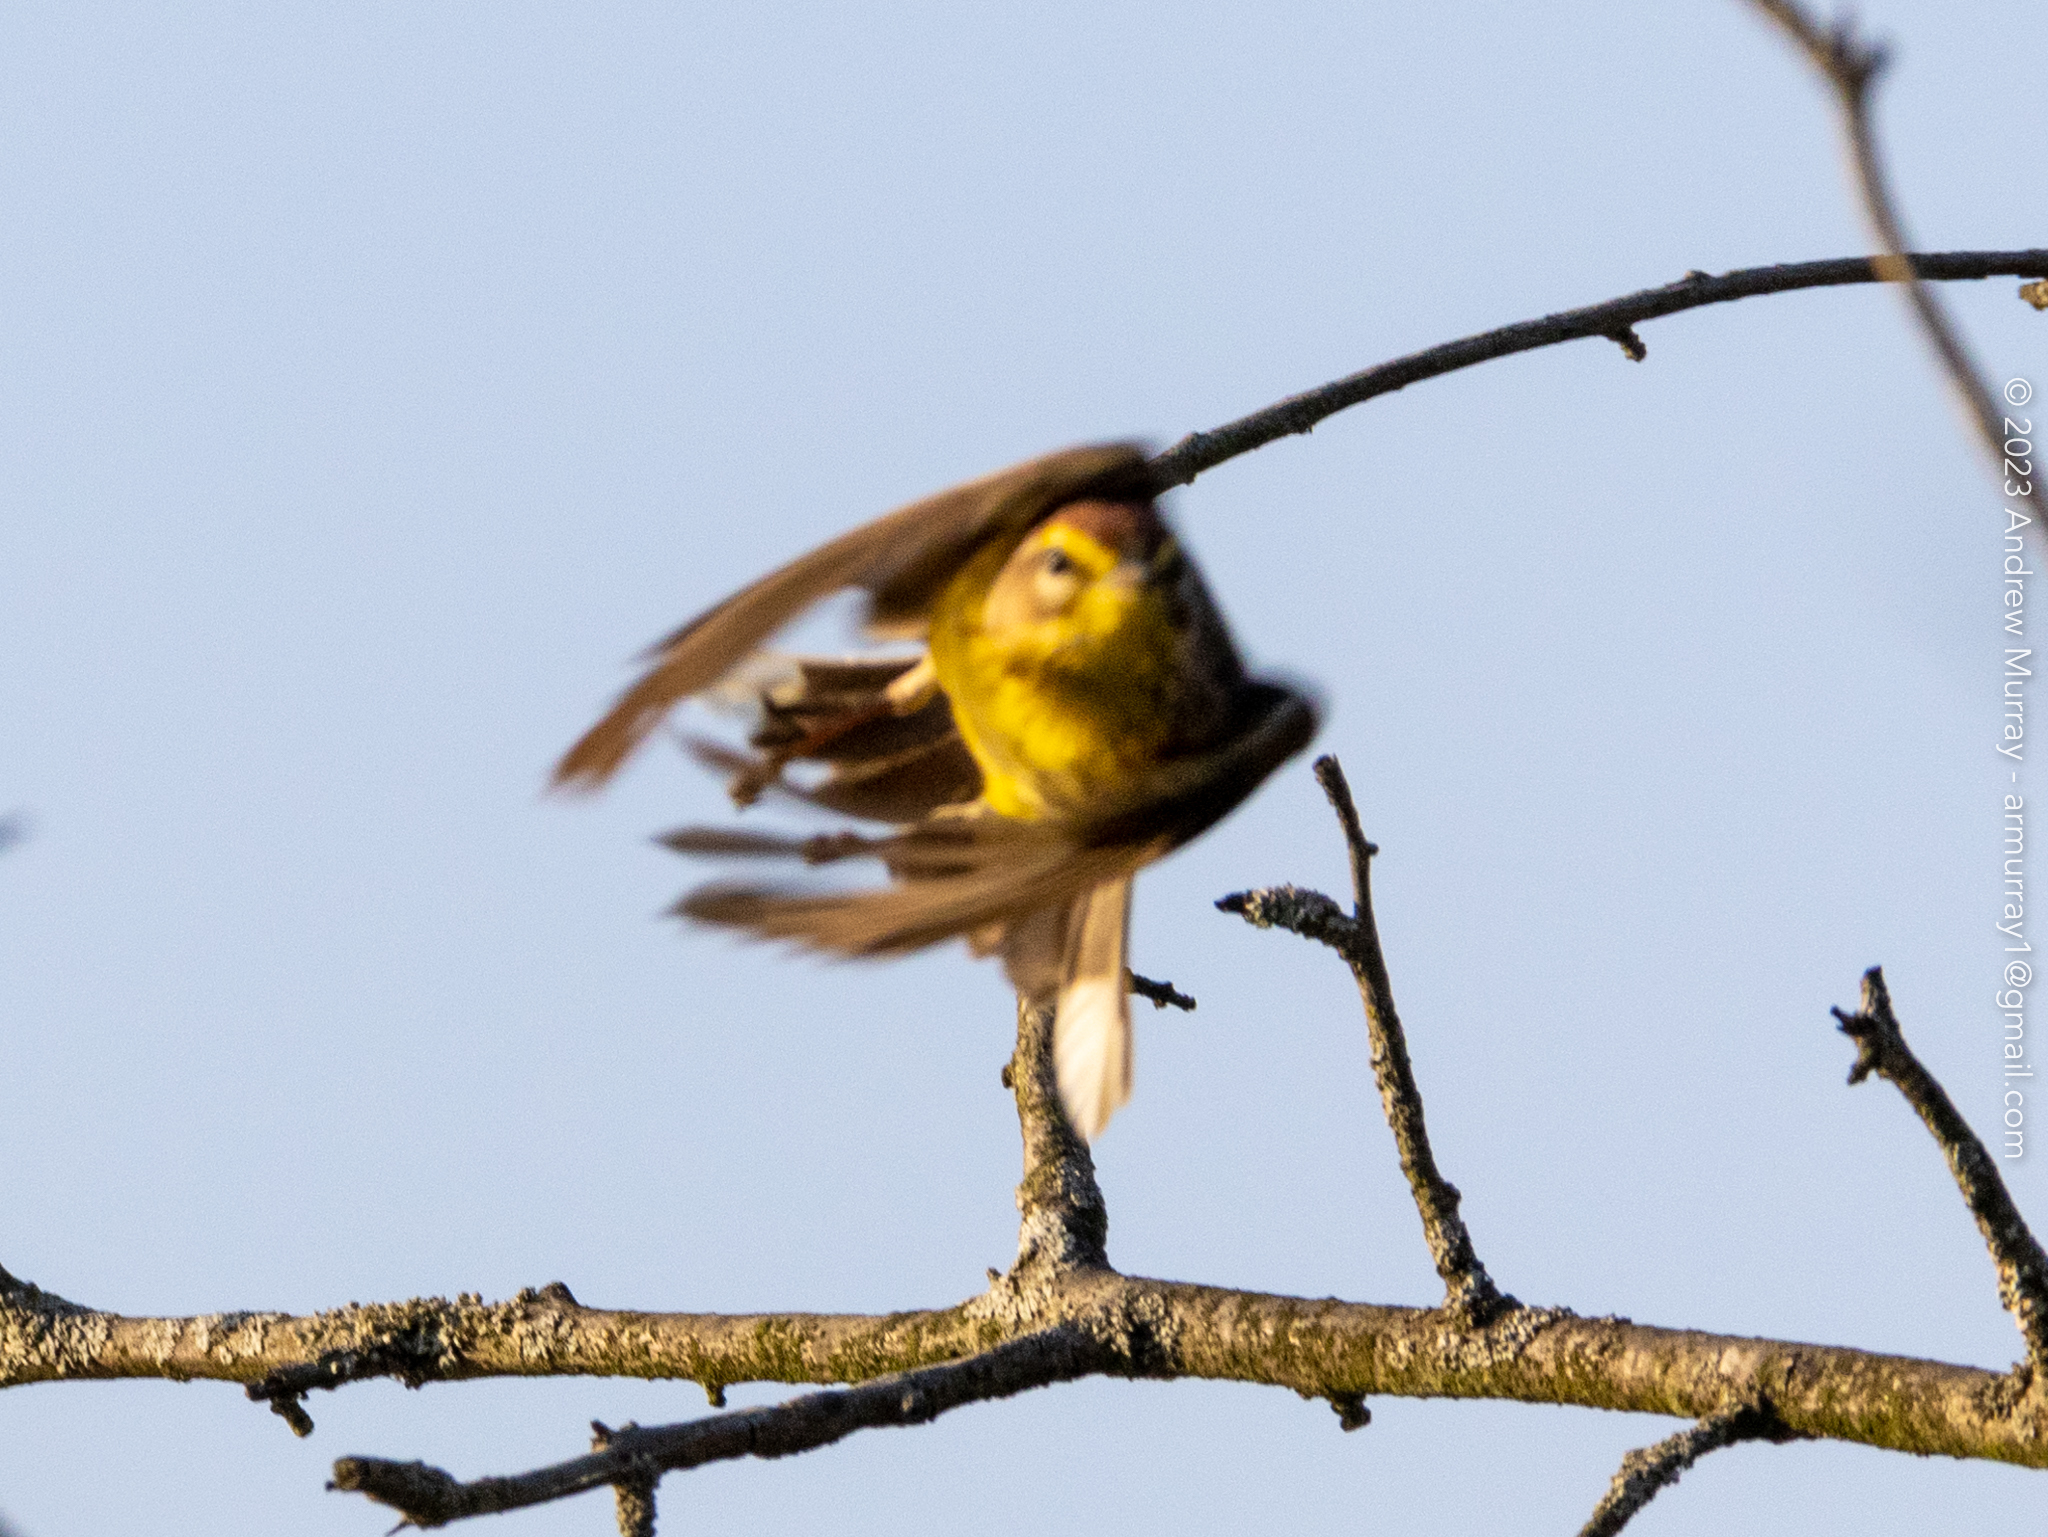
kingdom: Animalia
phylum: Chordata
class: Aves
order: Passeriformes
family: Parulidae
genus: Setophaga
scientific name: Setophaga palmarum
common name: Palm warbler
